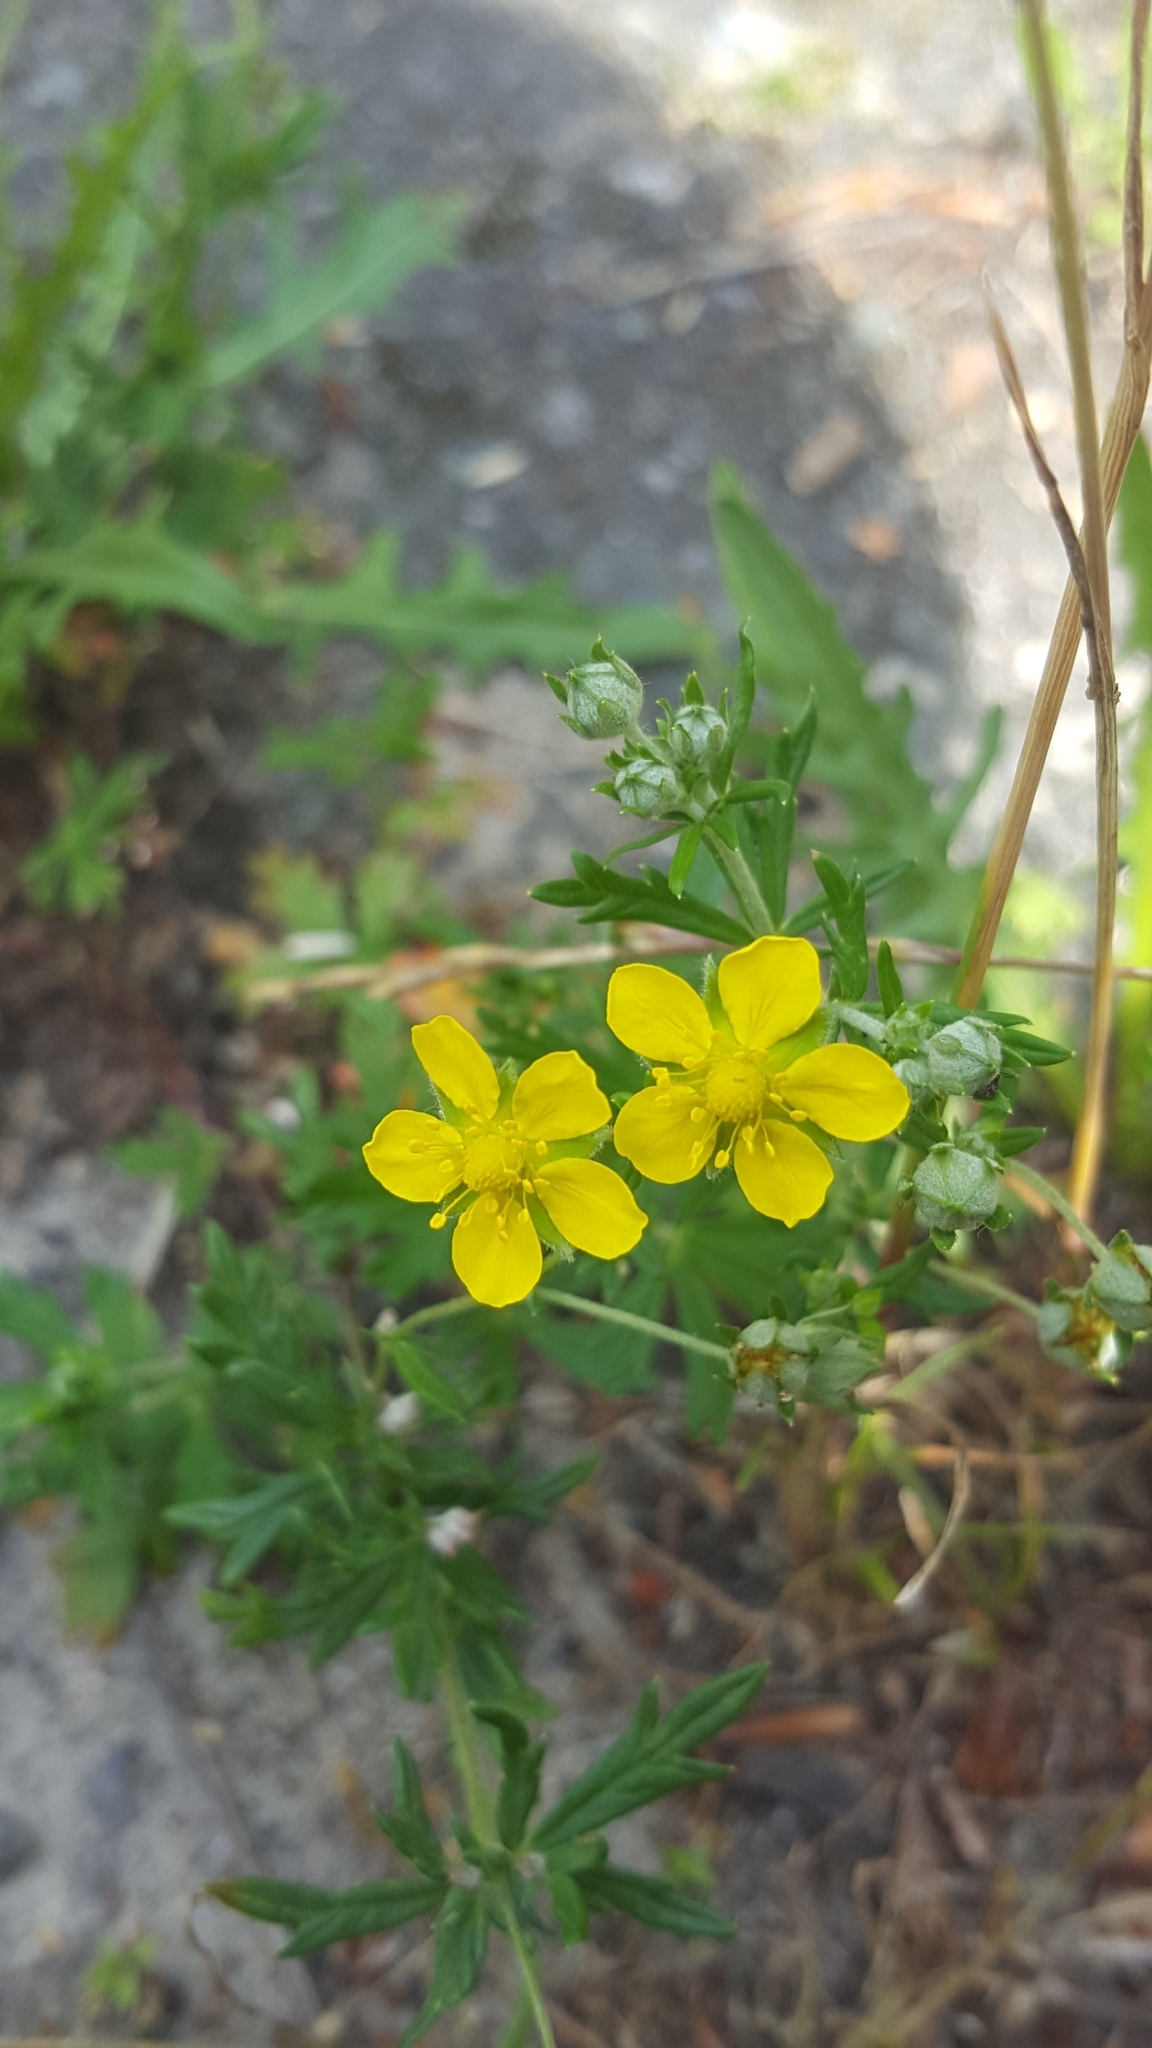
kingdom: Plantae
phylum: Tracheophyta
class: Magnoliopsida
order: Rosales
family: Rosaceae
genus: Potentilla
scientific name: Potentilla argentea
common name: Hoary cinquefoil
